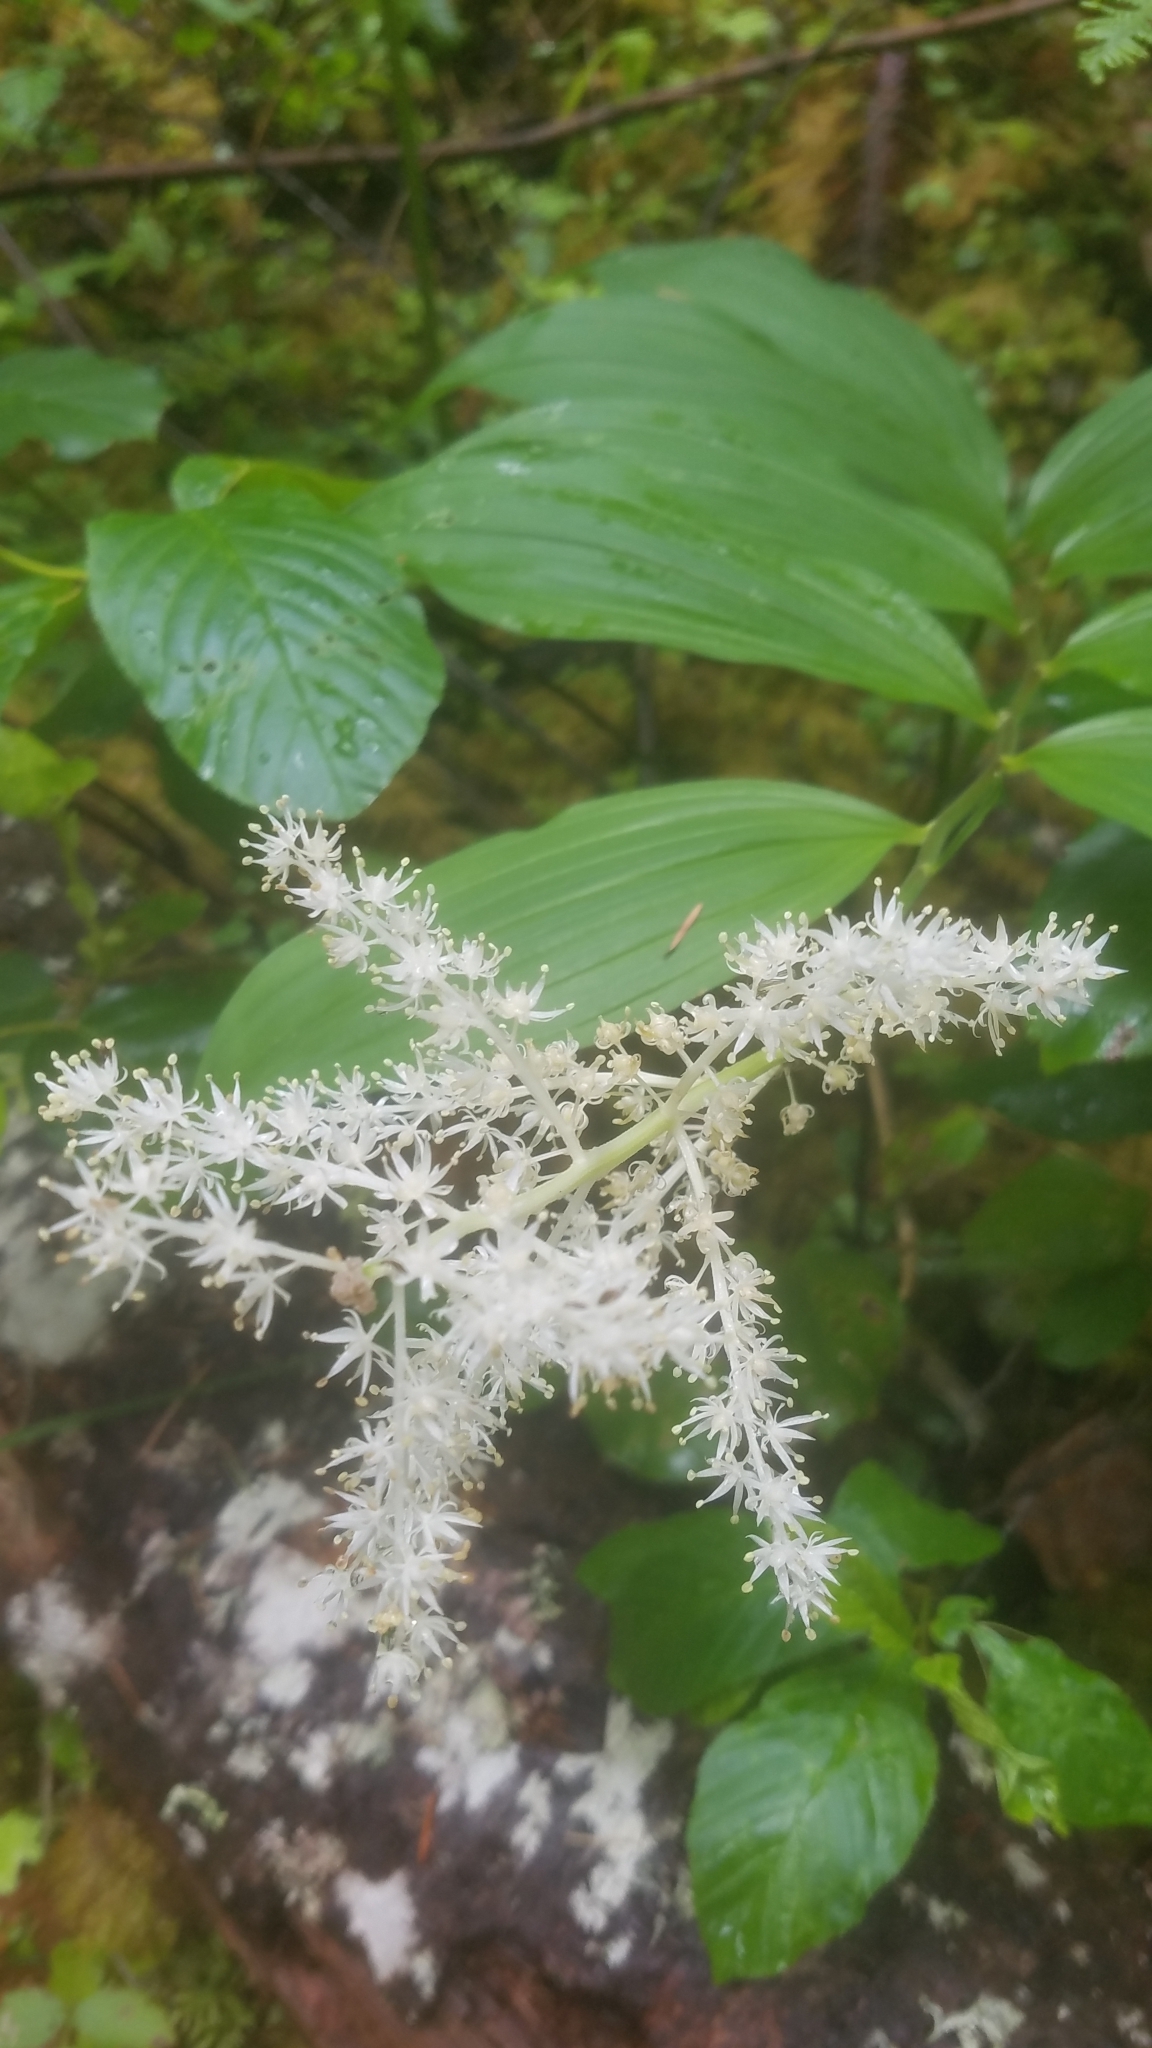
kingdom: Plantae
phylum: Tracheophyta
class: Liliopsida
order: Asparagales
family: Asparagaceae
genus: Maianthemum
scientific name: Maianthemum racemosum
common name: False spikenard
